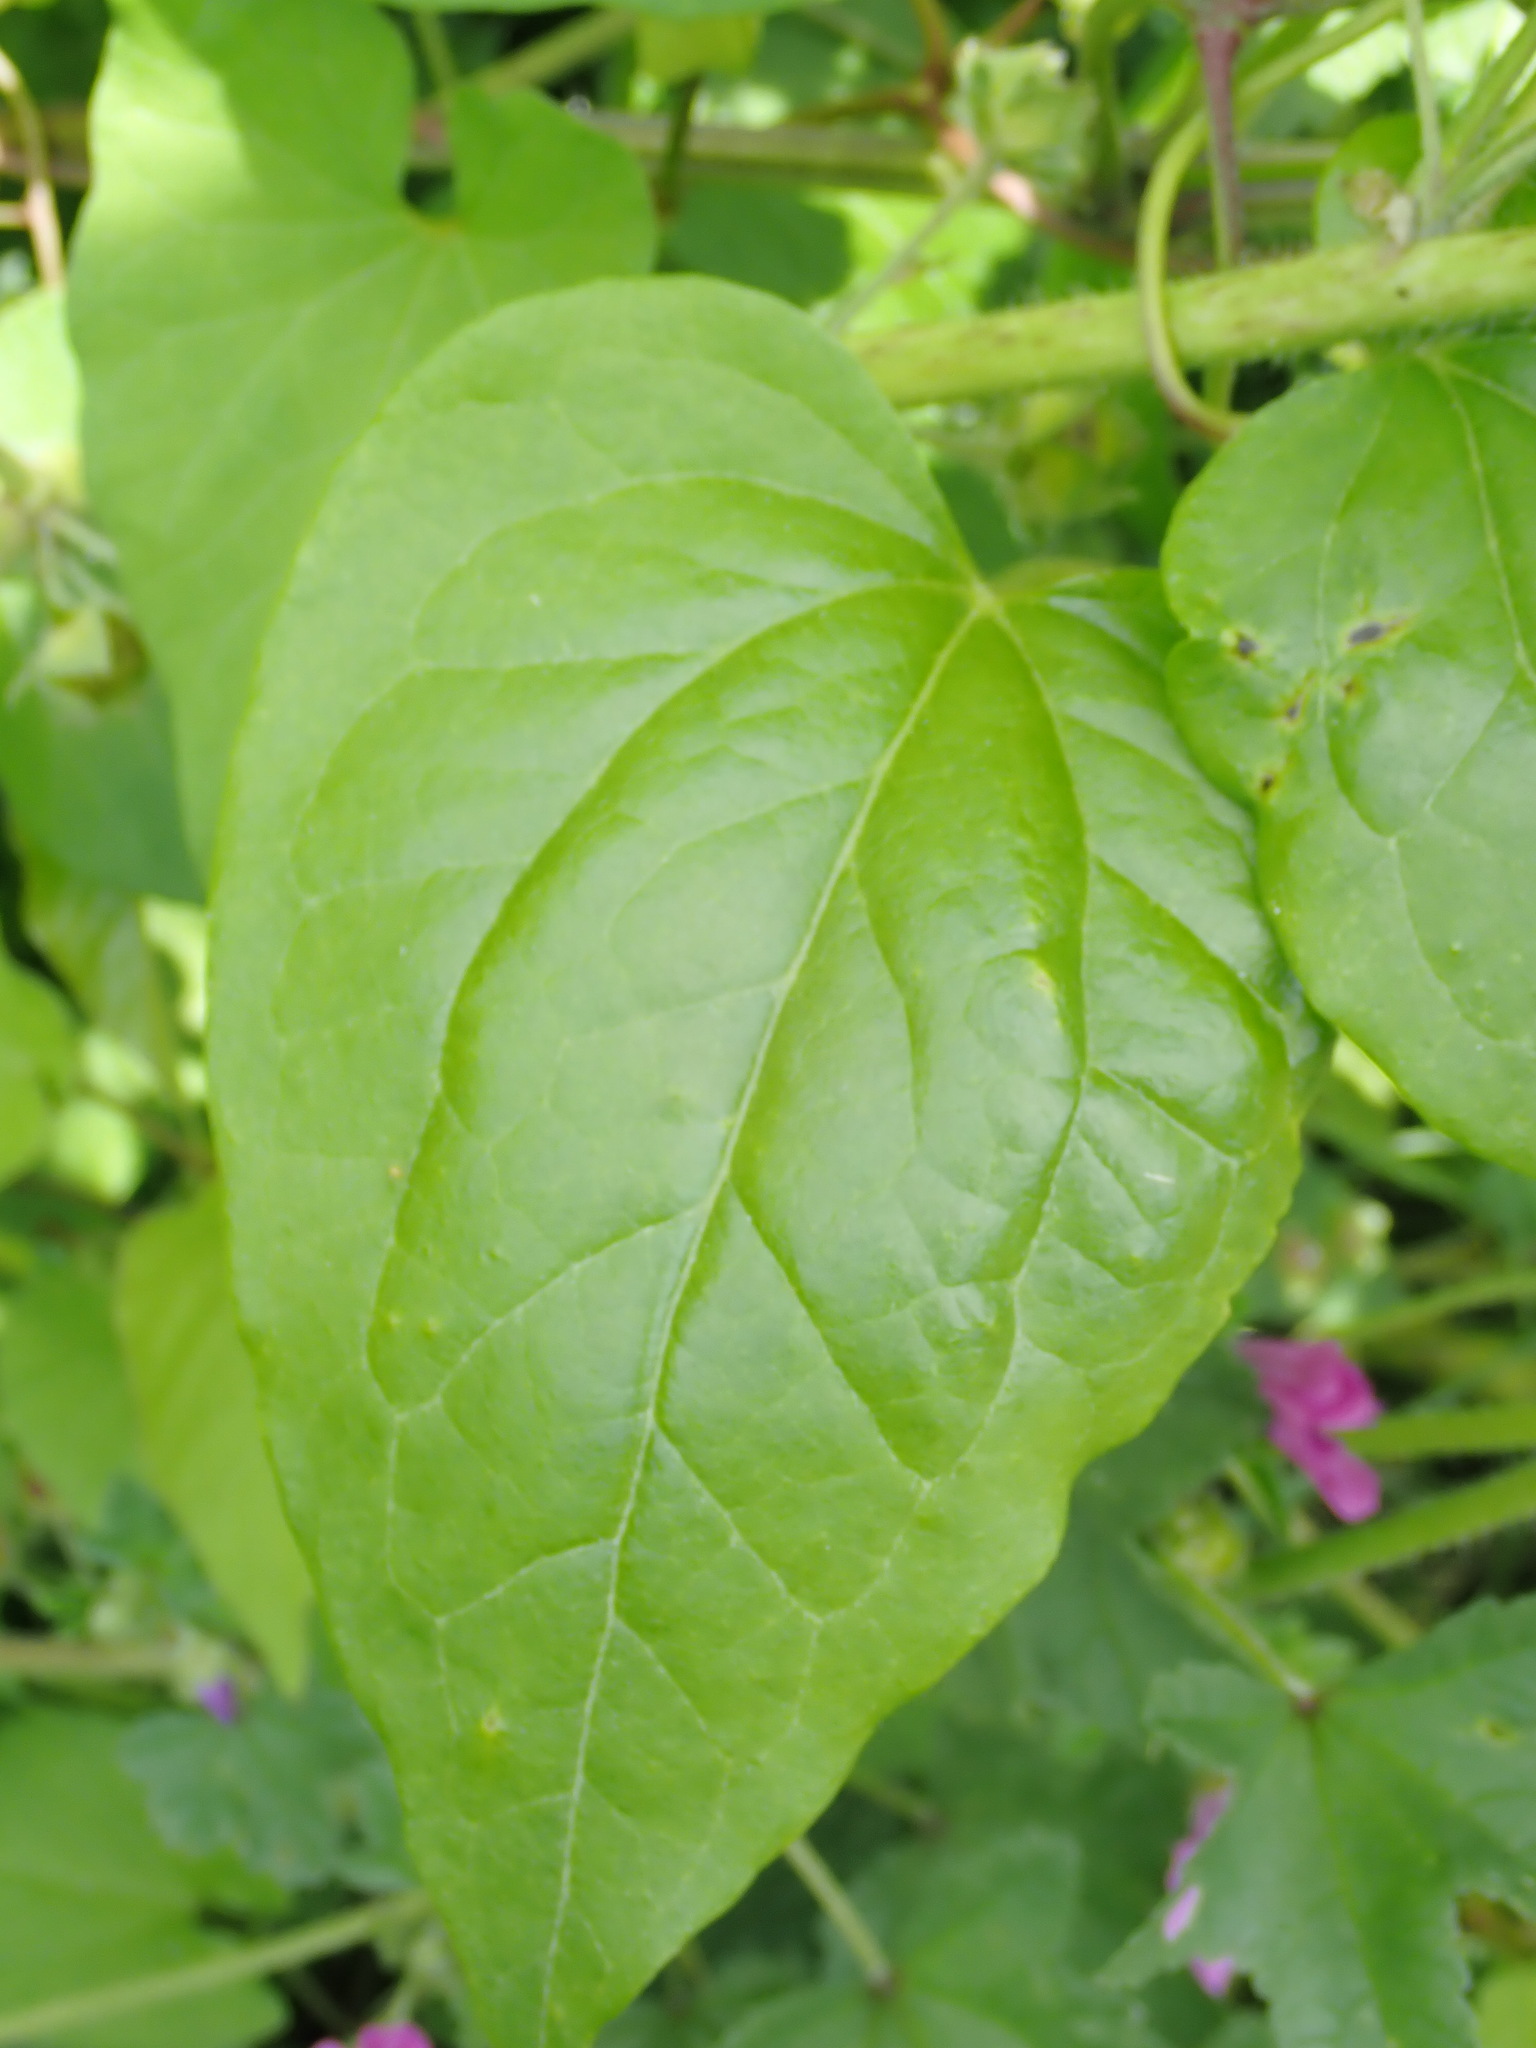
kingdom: Plantae
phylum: Tracheophyta
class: Liliopsida
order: Dioscoreales
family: Dioscoreaceae
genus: Dioscorea
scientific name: Dioscorea communis
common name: Black-bindweed
